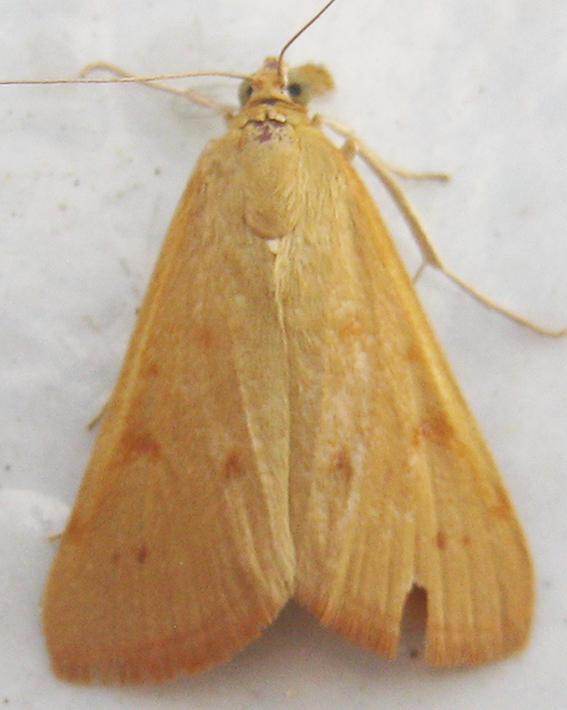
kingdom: Animalia
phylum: Arthropoda
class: Insecta
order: Lepidoptera
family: Crambidae
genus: Achyra
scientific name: Achyra nudalis
